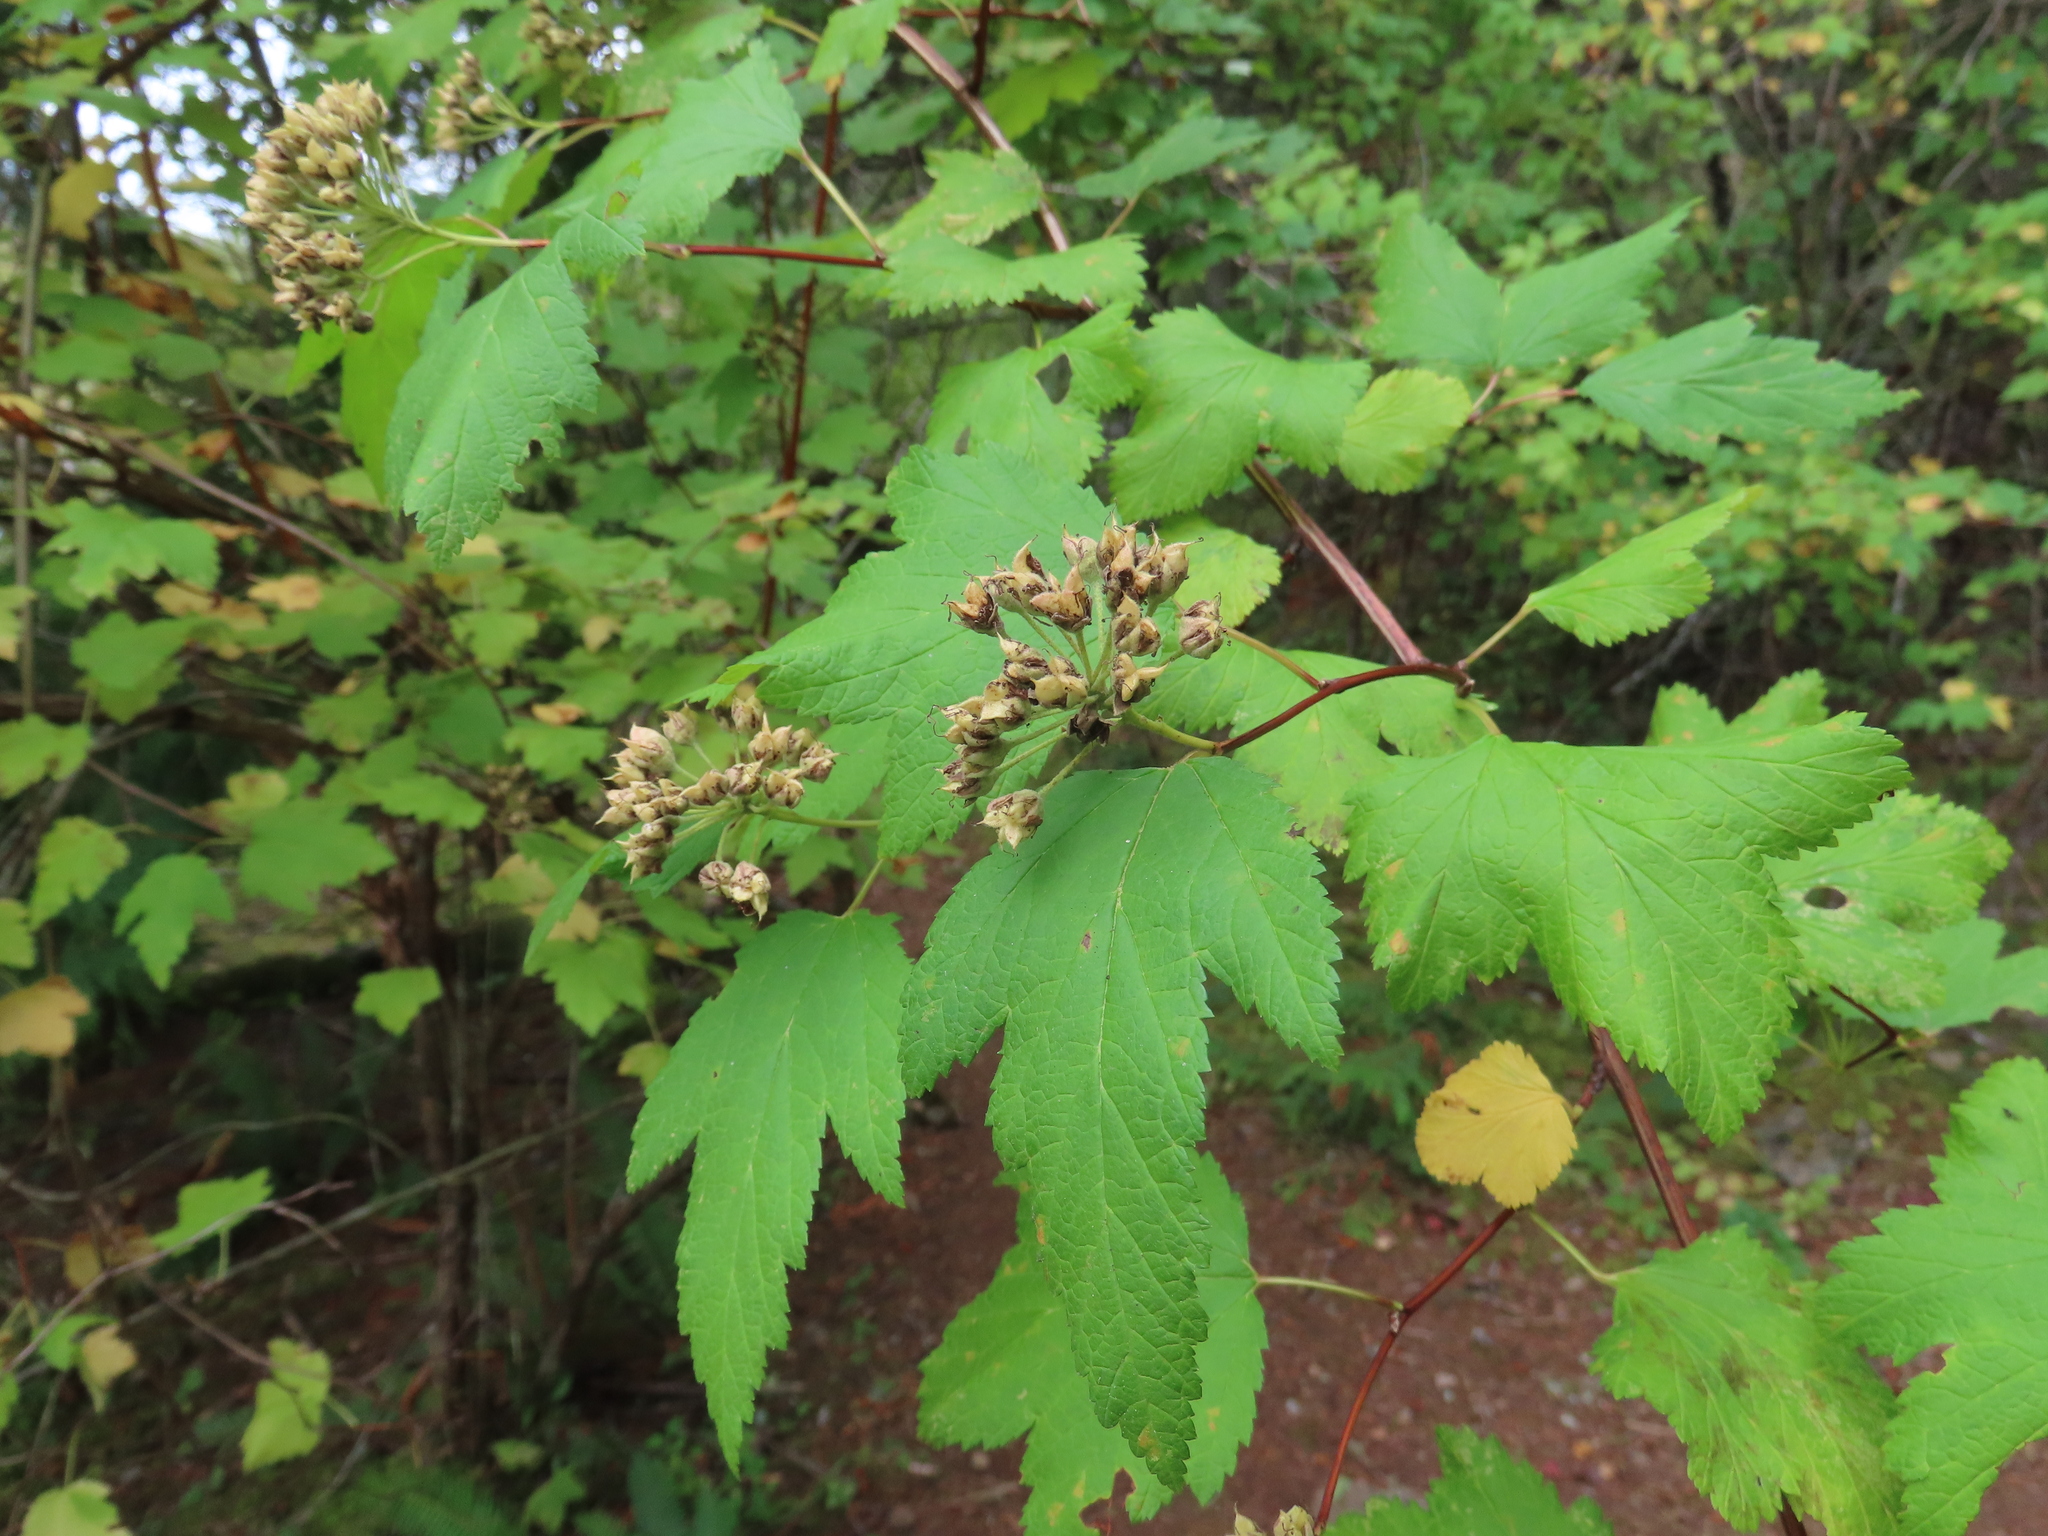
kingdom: Plantae
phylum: Tracheophyta
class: Magnoliopsida
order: Rosales
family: Rosaceae
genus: Physocarpus
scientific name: Physocarpus capitatus
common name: Pacific ninebark
